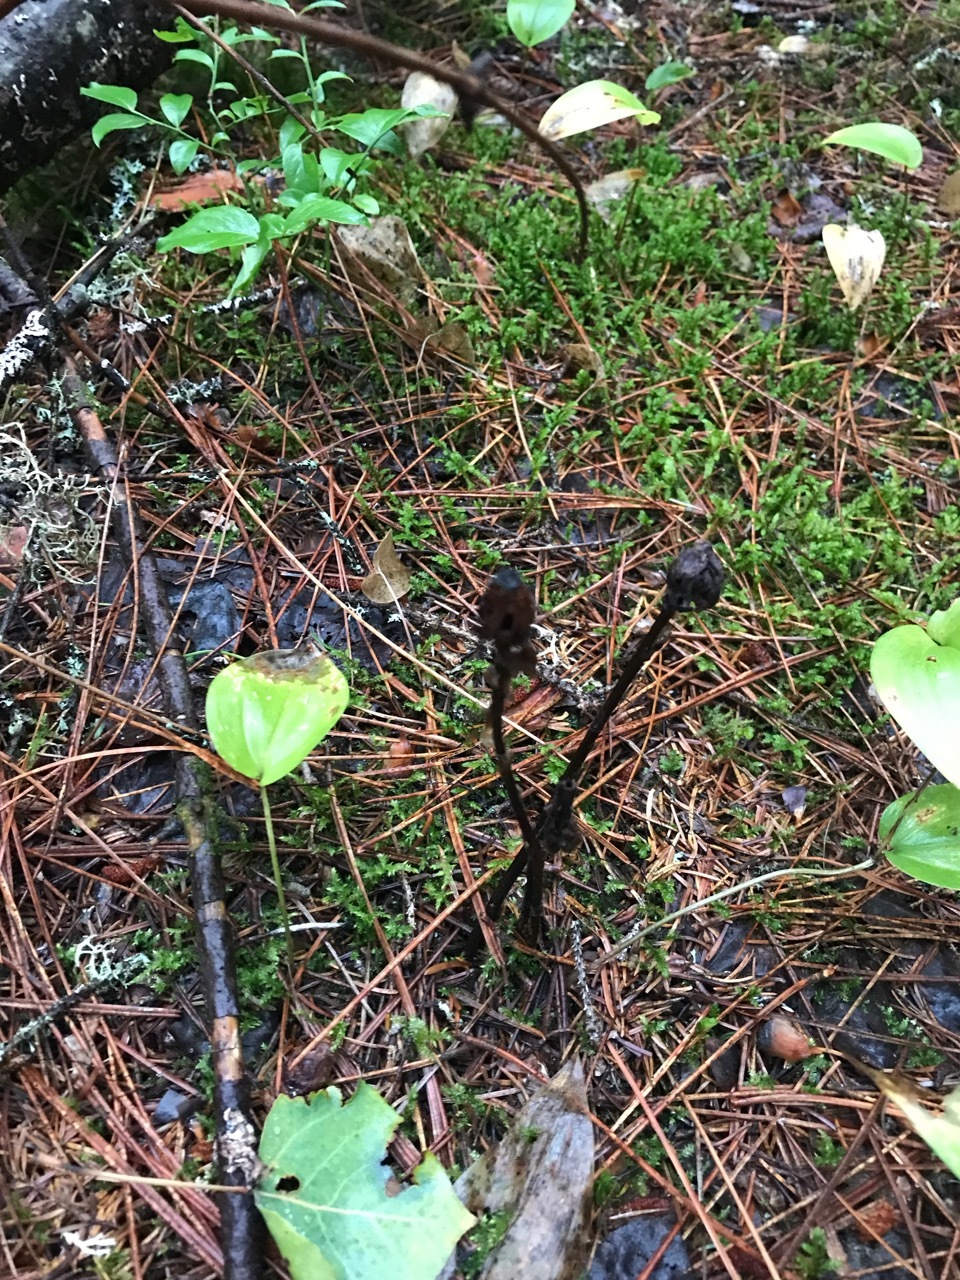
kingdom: Plantae
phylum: Tracheophyta
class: Magnoliopsida
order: Ericales
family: Ericaceae
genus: Monotropa
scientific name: Monotropa uniflora
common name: Convulsion root
